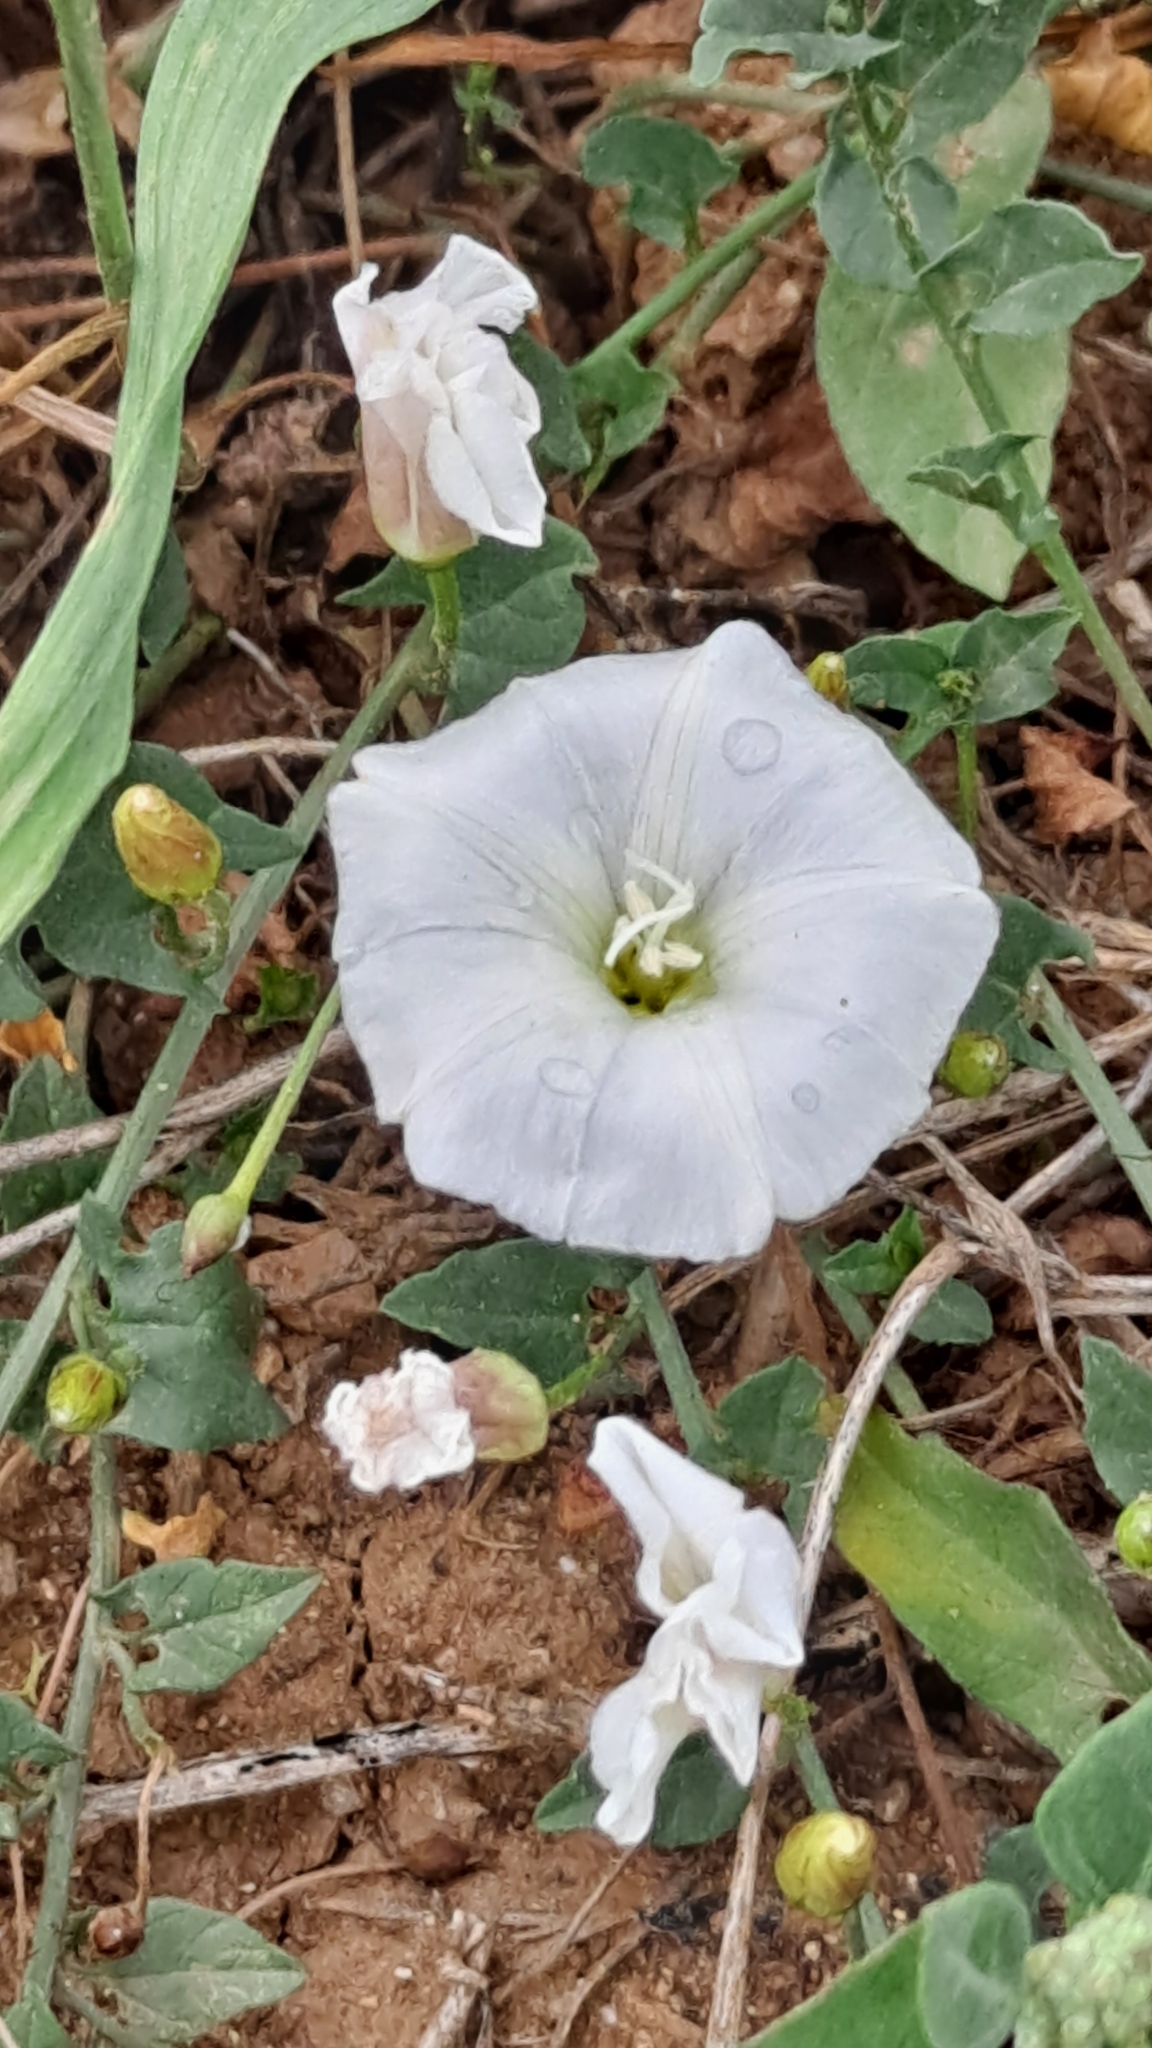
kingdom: Plantae
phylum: Tracheophyta
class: Magnoliopsida
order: Solanales
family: Convolvulaceae
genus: Convolvulus
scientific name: Convolvulus arvensis
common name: Field bindweed
